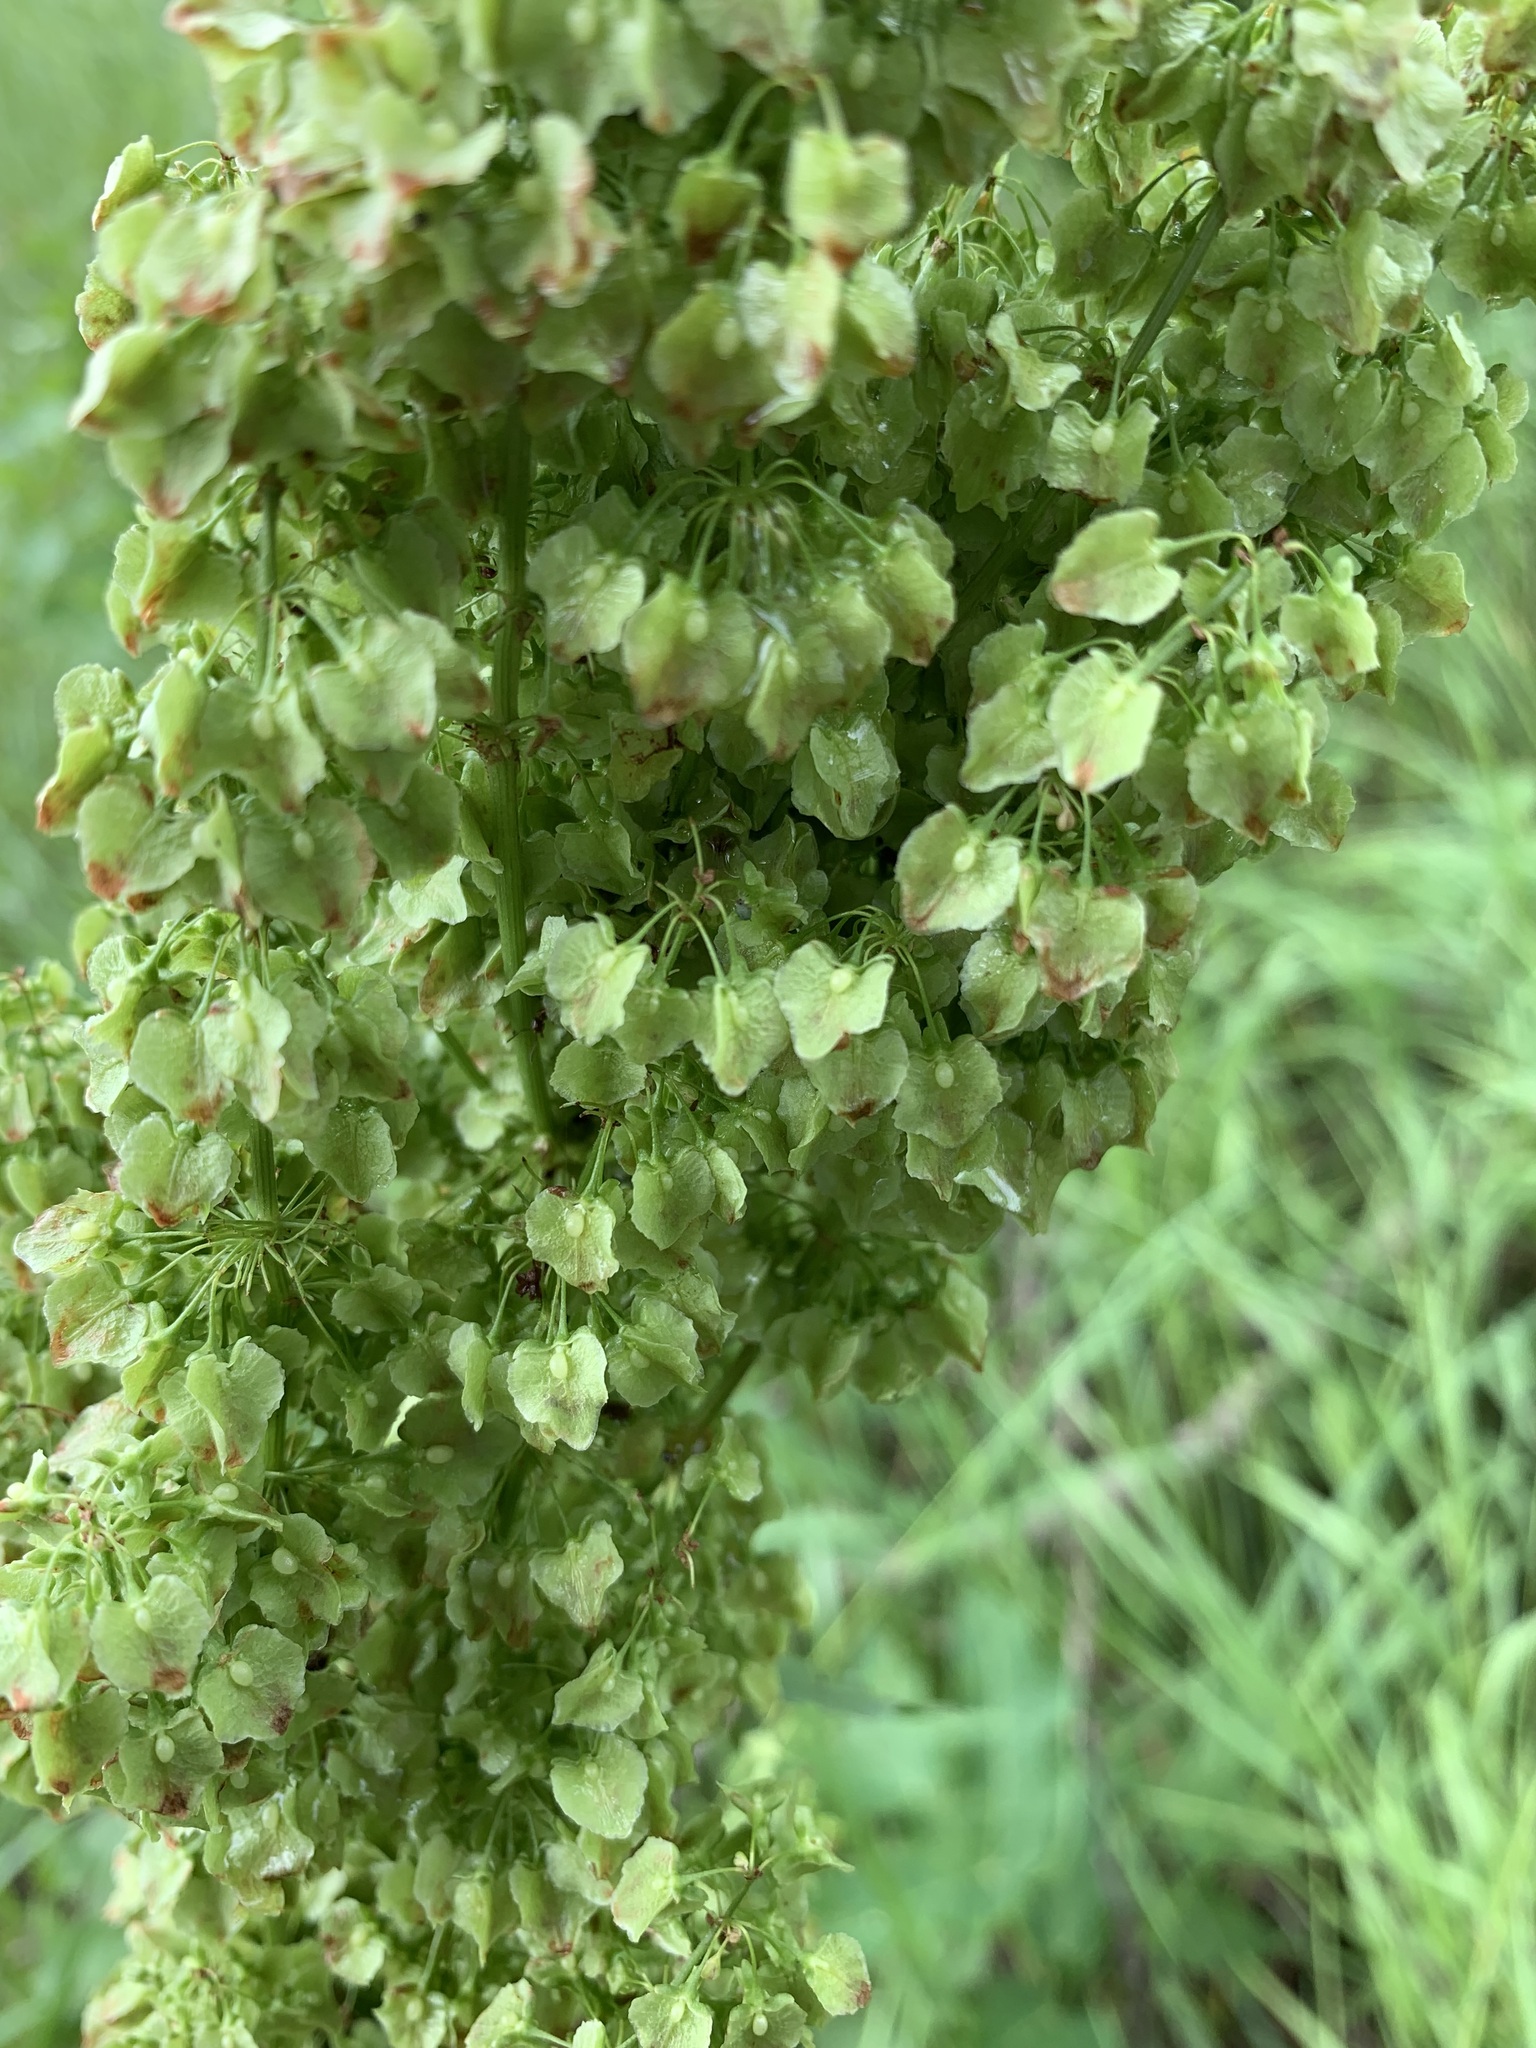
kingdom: Plantae
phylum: Tracheophyta
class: Magnoliopsida
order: Caryophyllales
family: Polygonaceae
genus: Rumex
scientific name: Rumex confertus
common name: Russian dock
